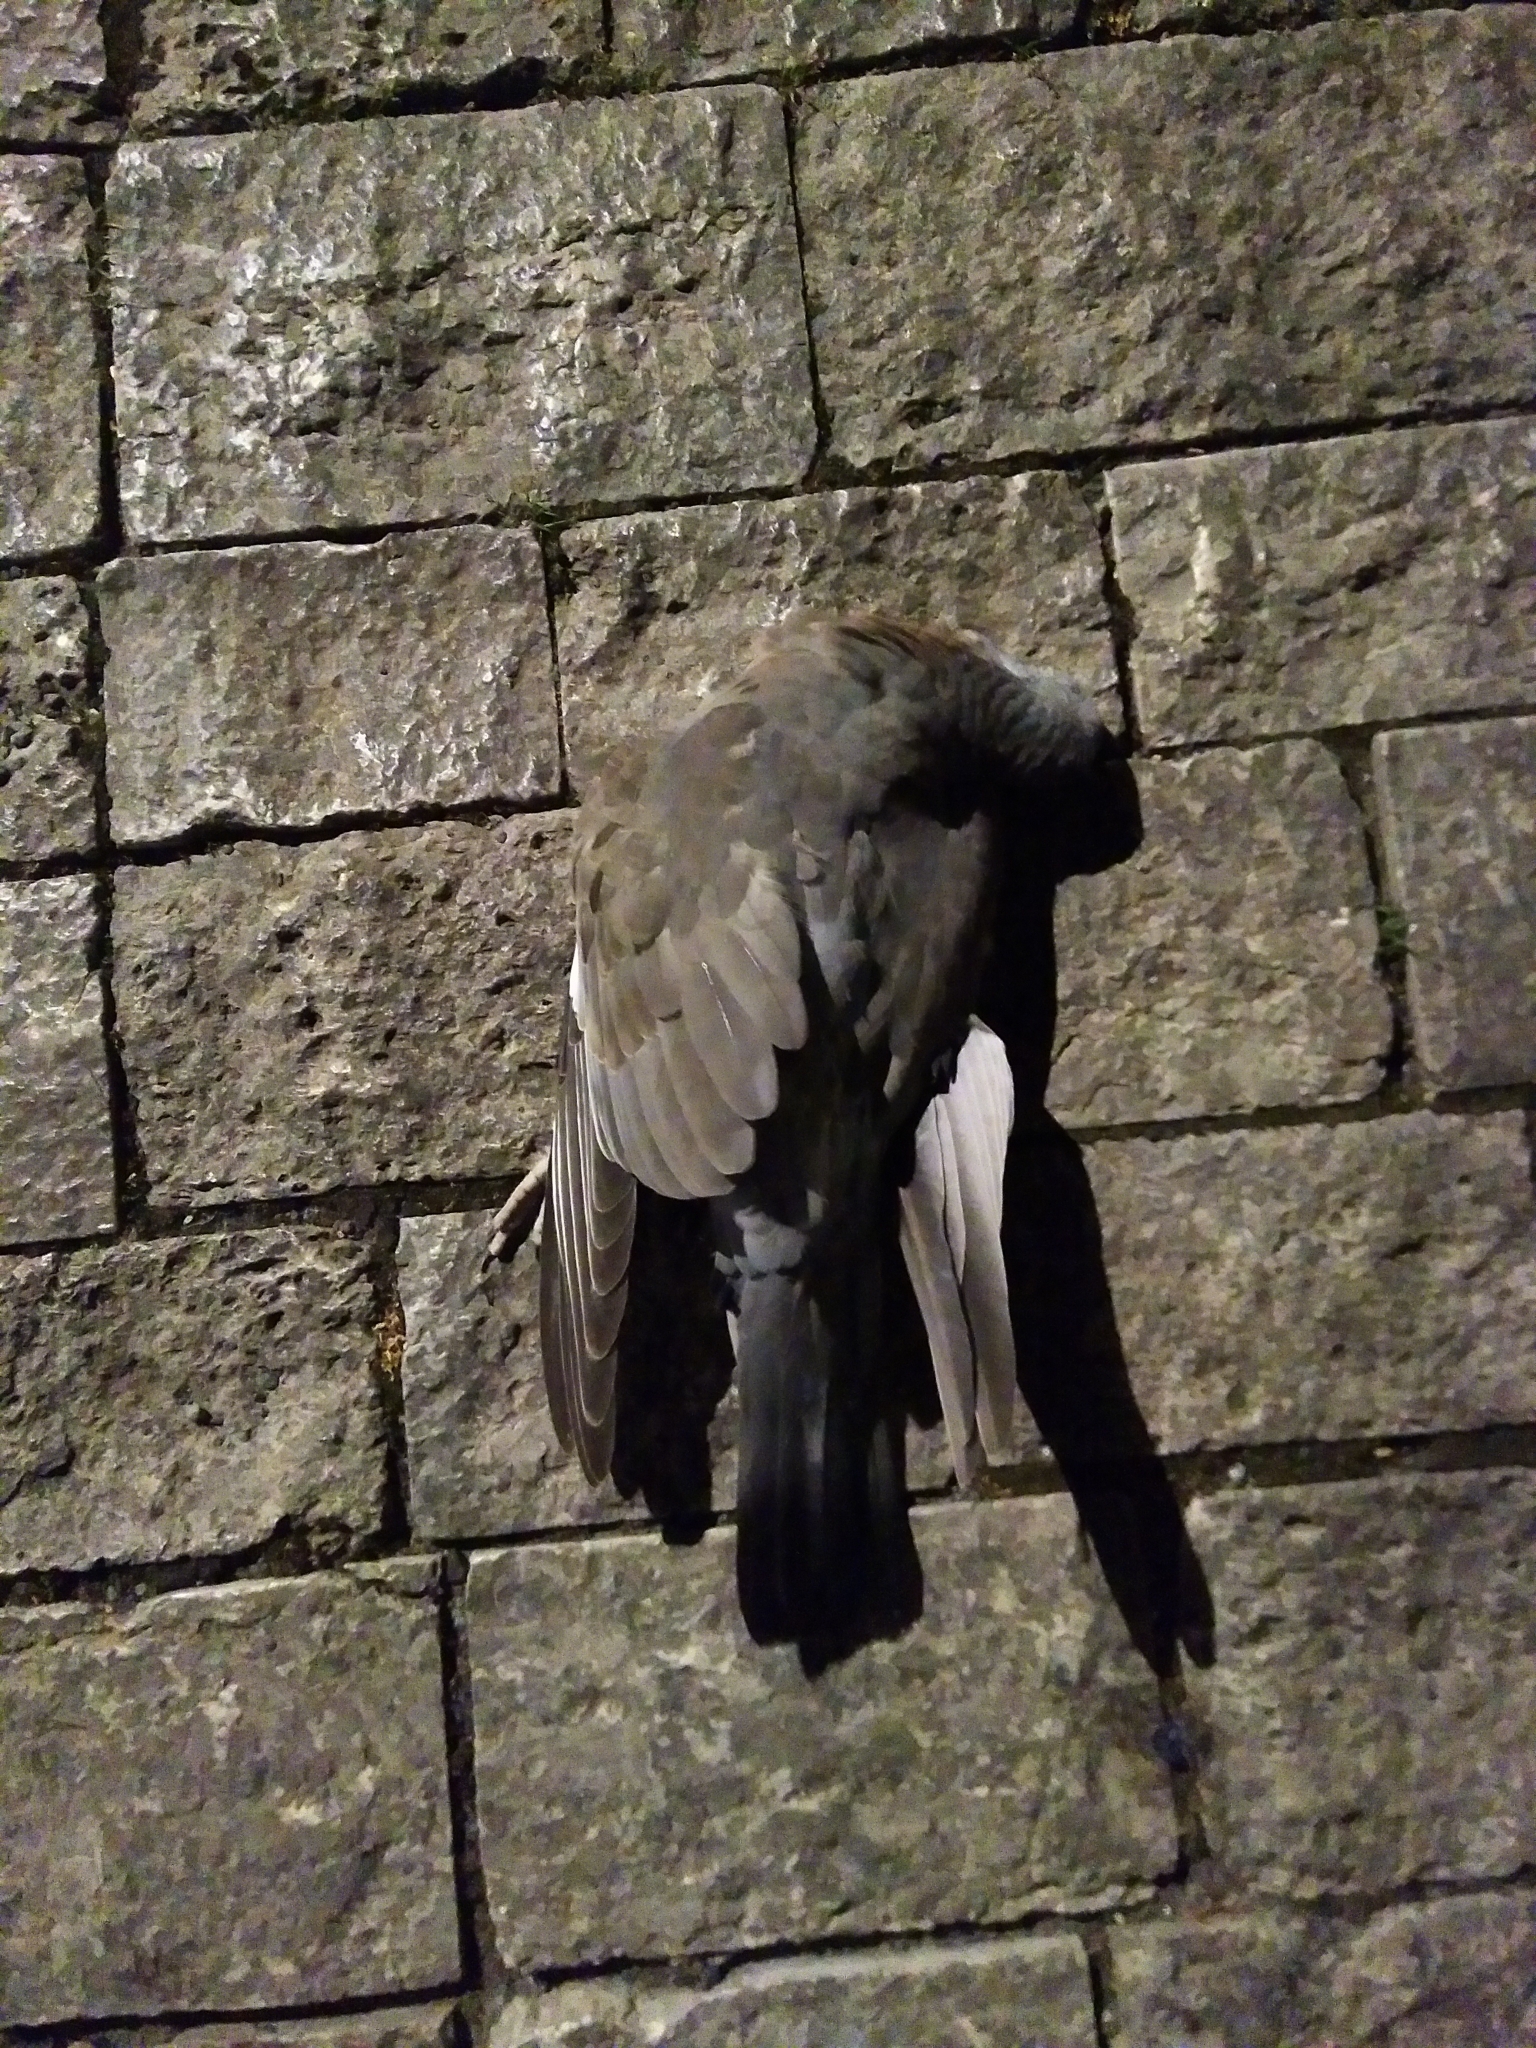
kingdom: Animalia
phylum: Chordata
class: Aves
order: Columbiformes
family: Columbidae
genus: Columba
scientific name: Columba palumbus
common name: Common wood pigeon
